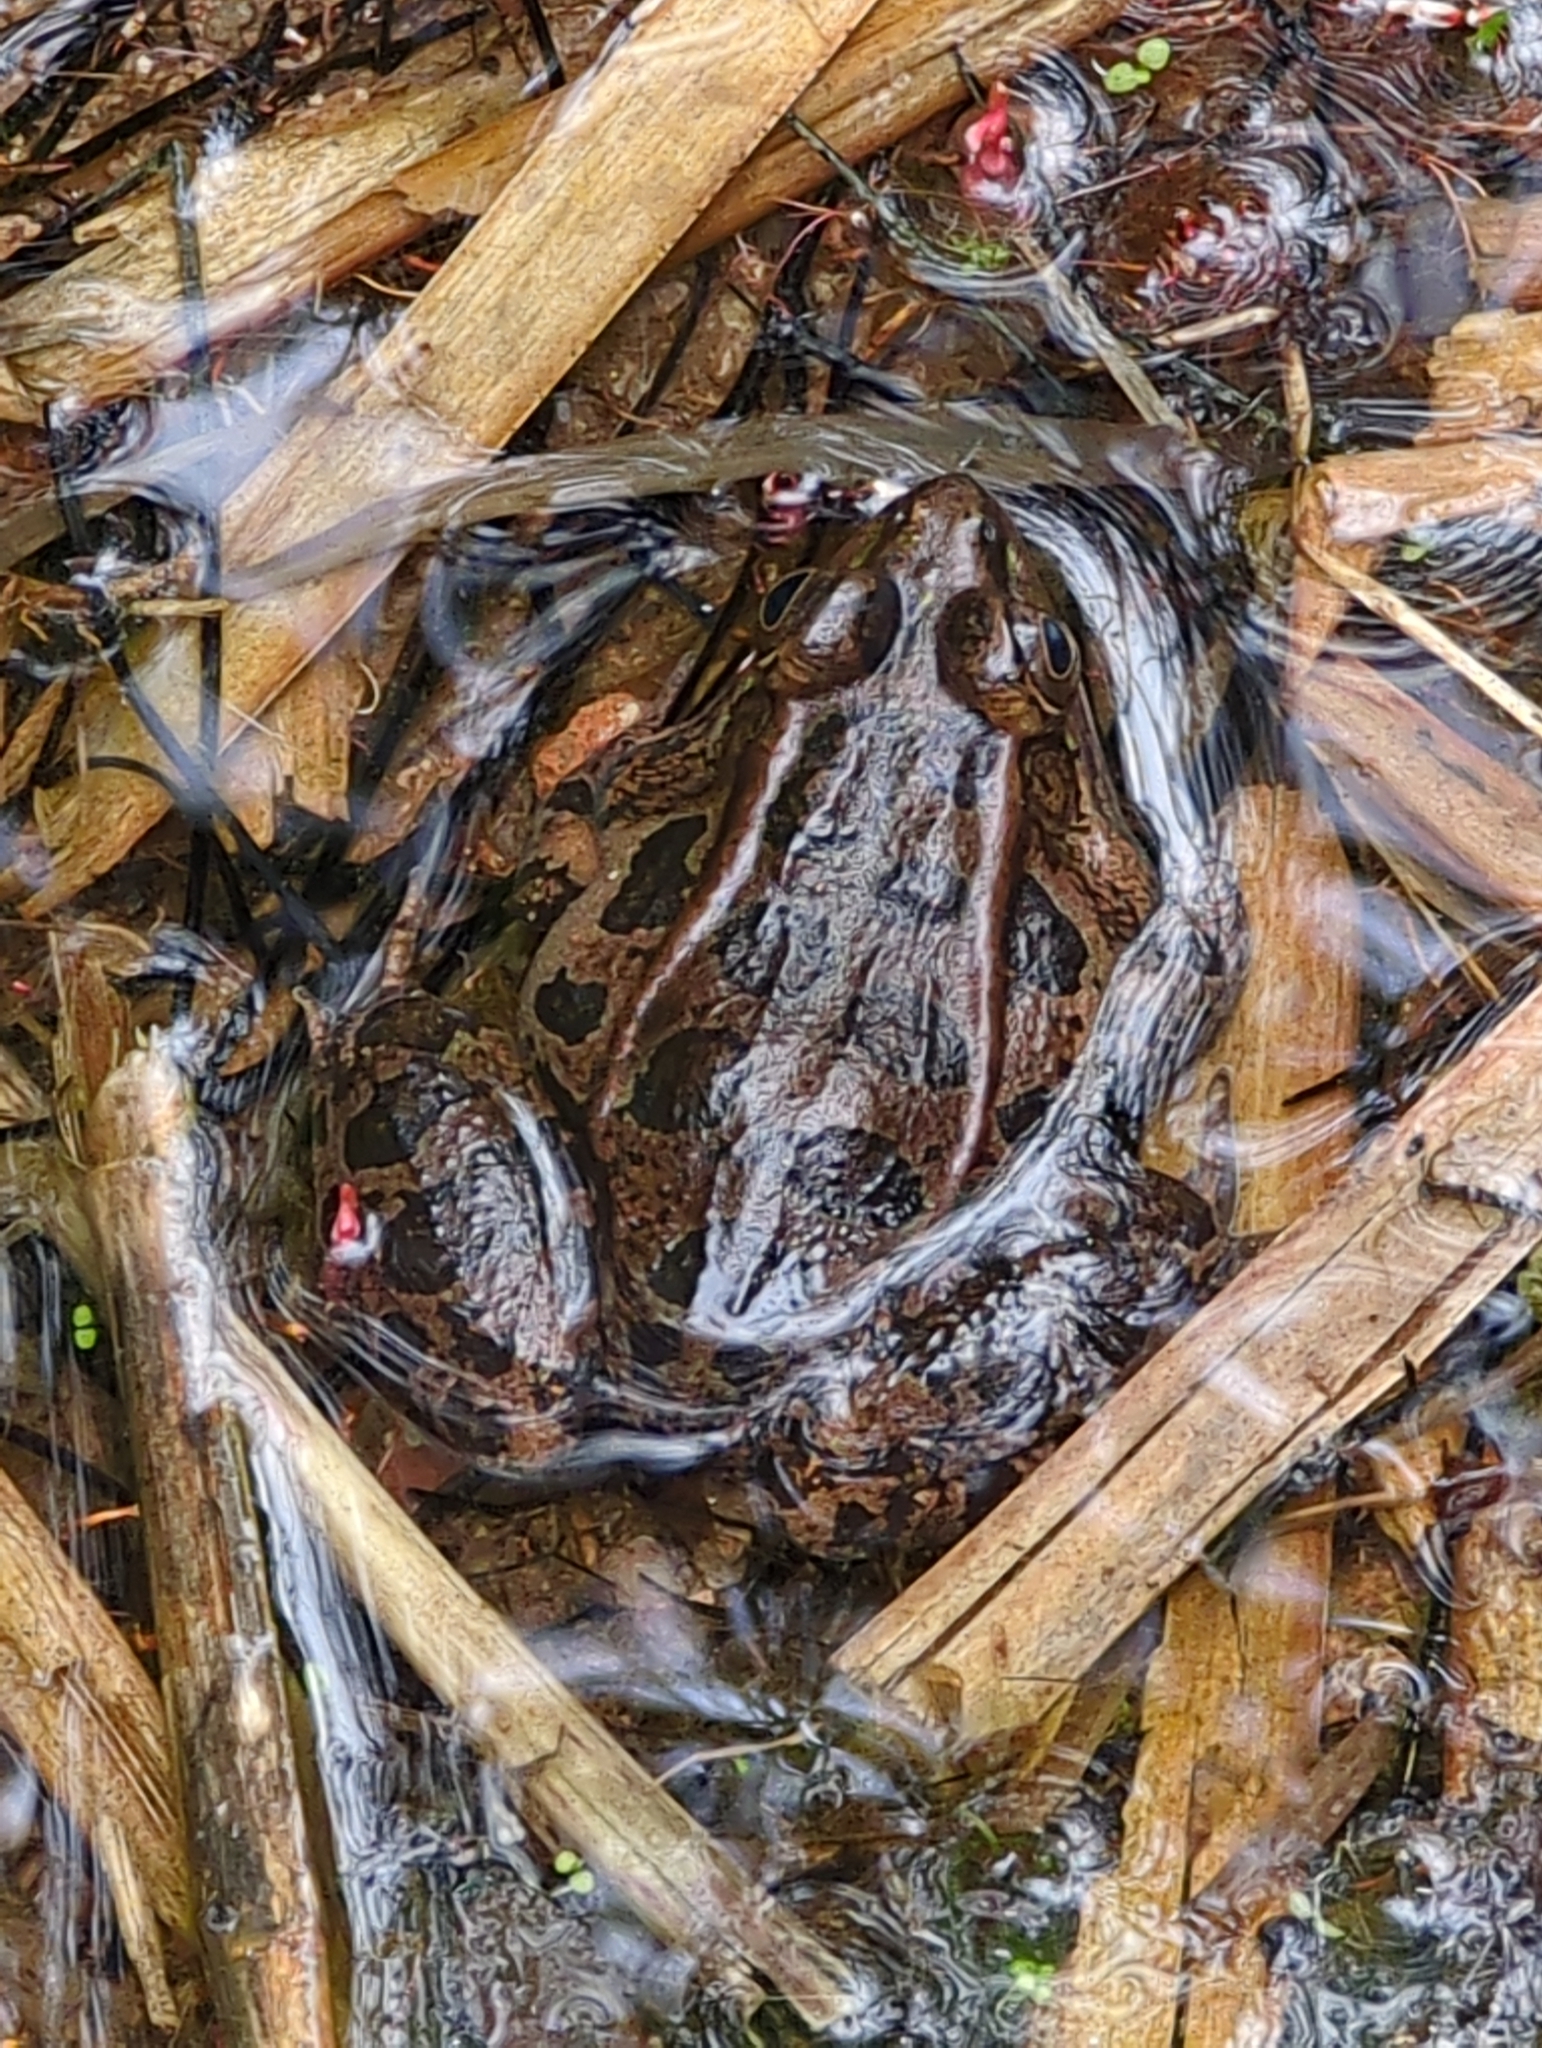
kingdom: Animalia
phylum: Chordata
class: Amphibia
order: Anura
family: Ranidae
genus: Lithobates
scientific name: Lithobates berlandieri
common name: Rio grande leopard frog
